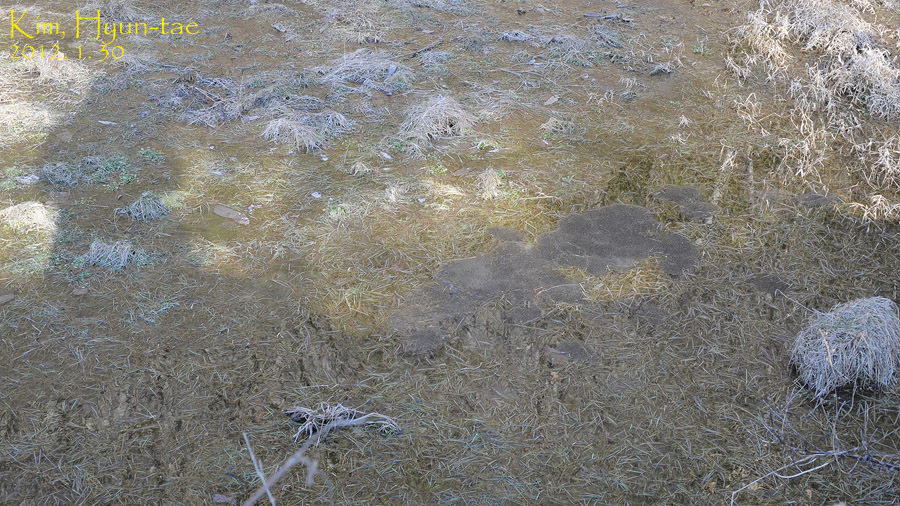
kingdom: Animalia
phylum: Chordata
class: Amphibia
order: Anura
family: Ranidae
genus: Rana
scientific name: Rana uenoi
